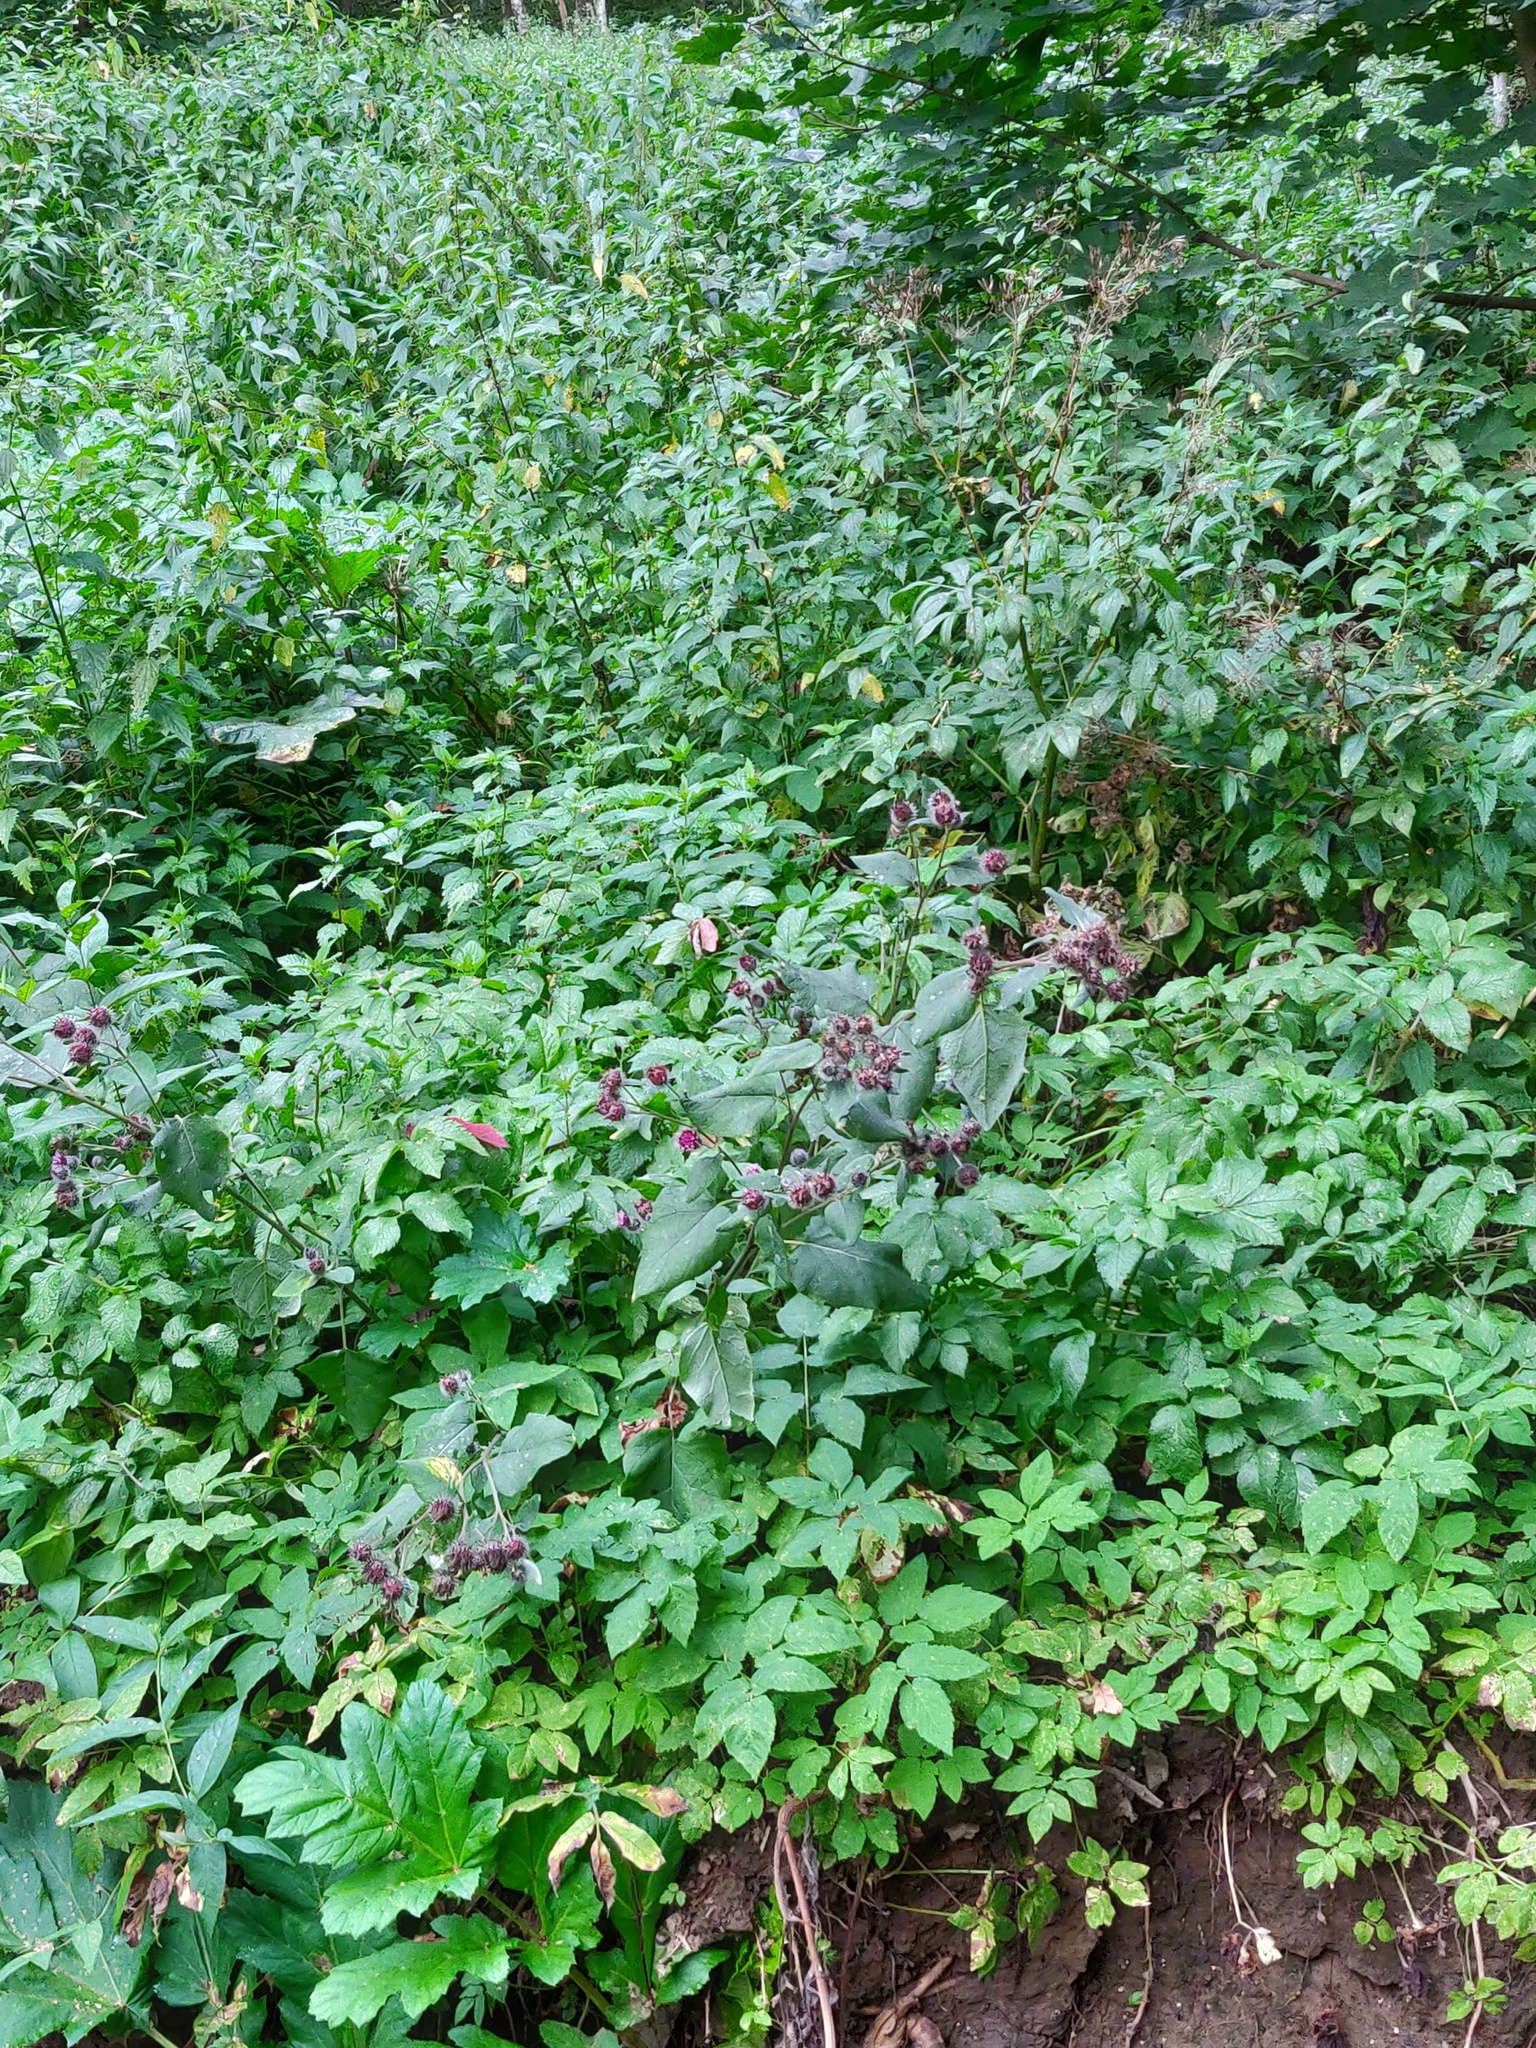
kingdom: Plantae
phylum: Tracheophyta
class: Magnoliopsida
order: Asterales
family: Asteraceae
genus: Arctium
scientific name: Arctium tomentosum
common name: Woolly burdock
